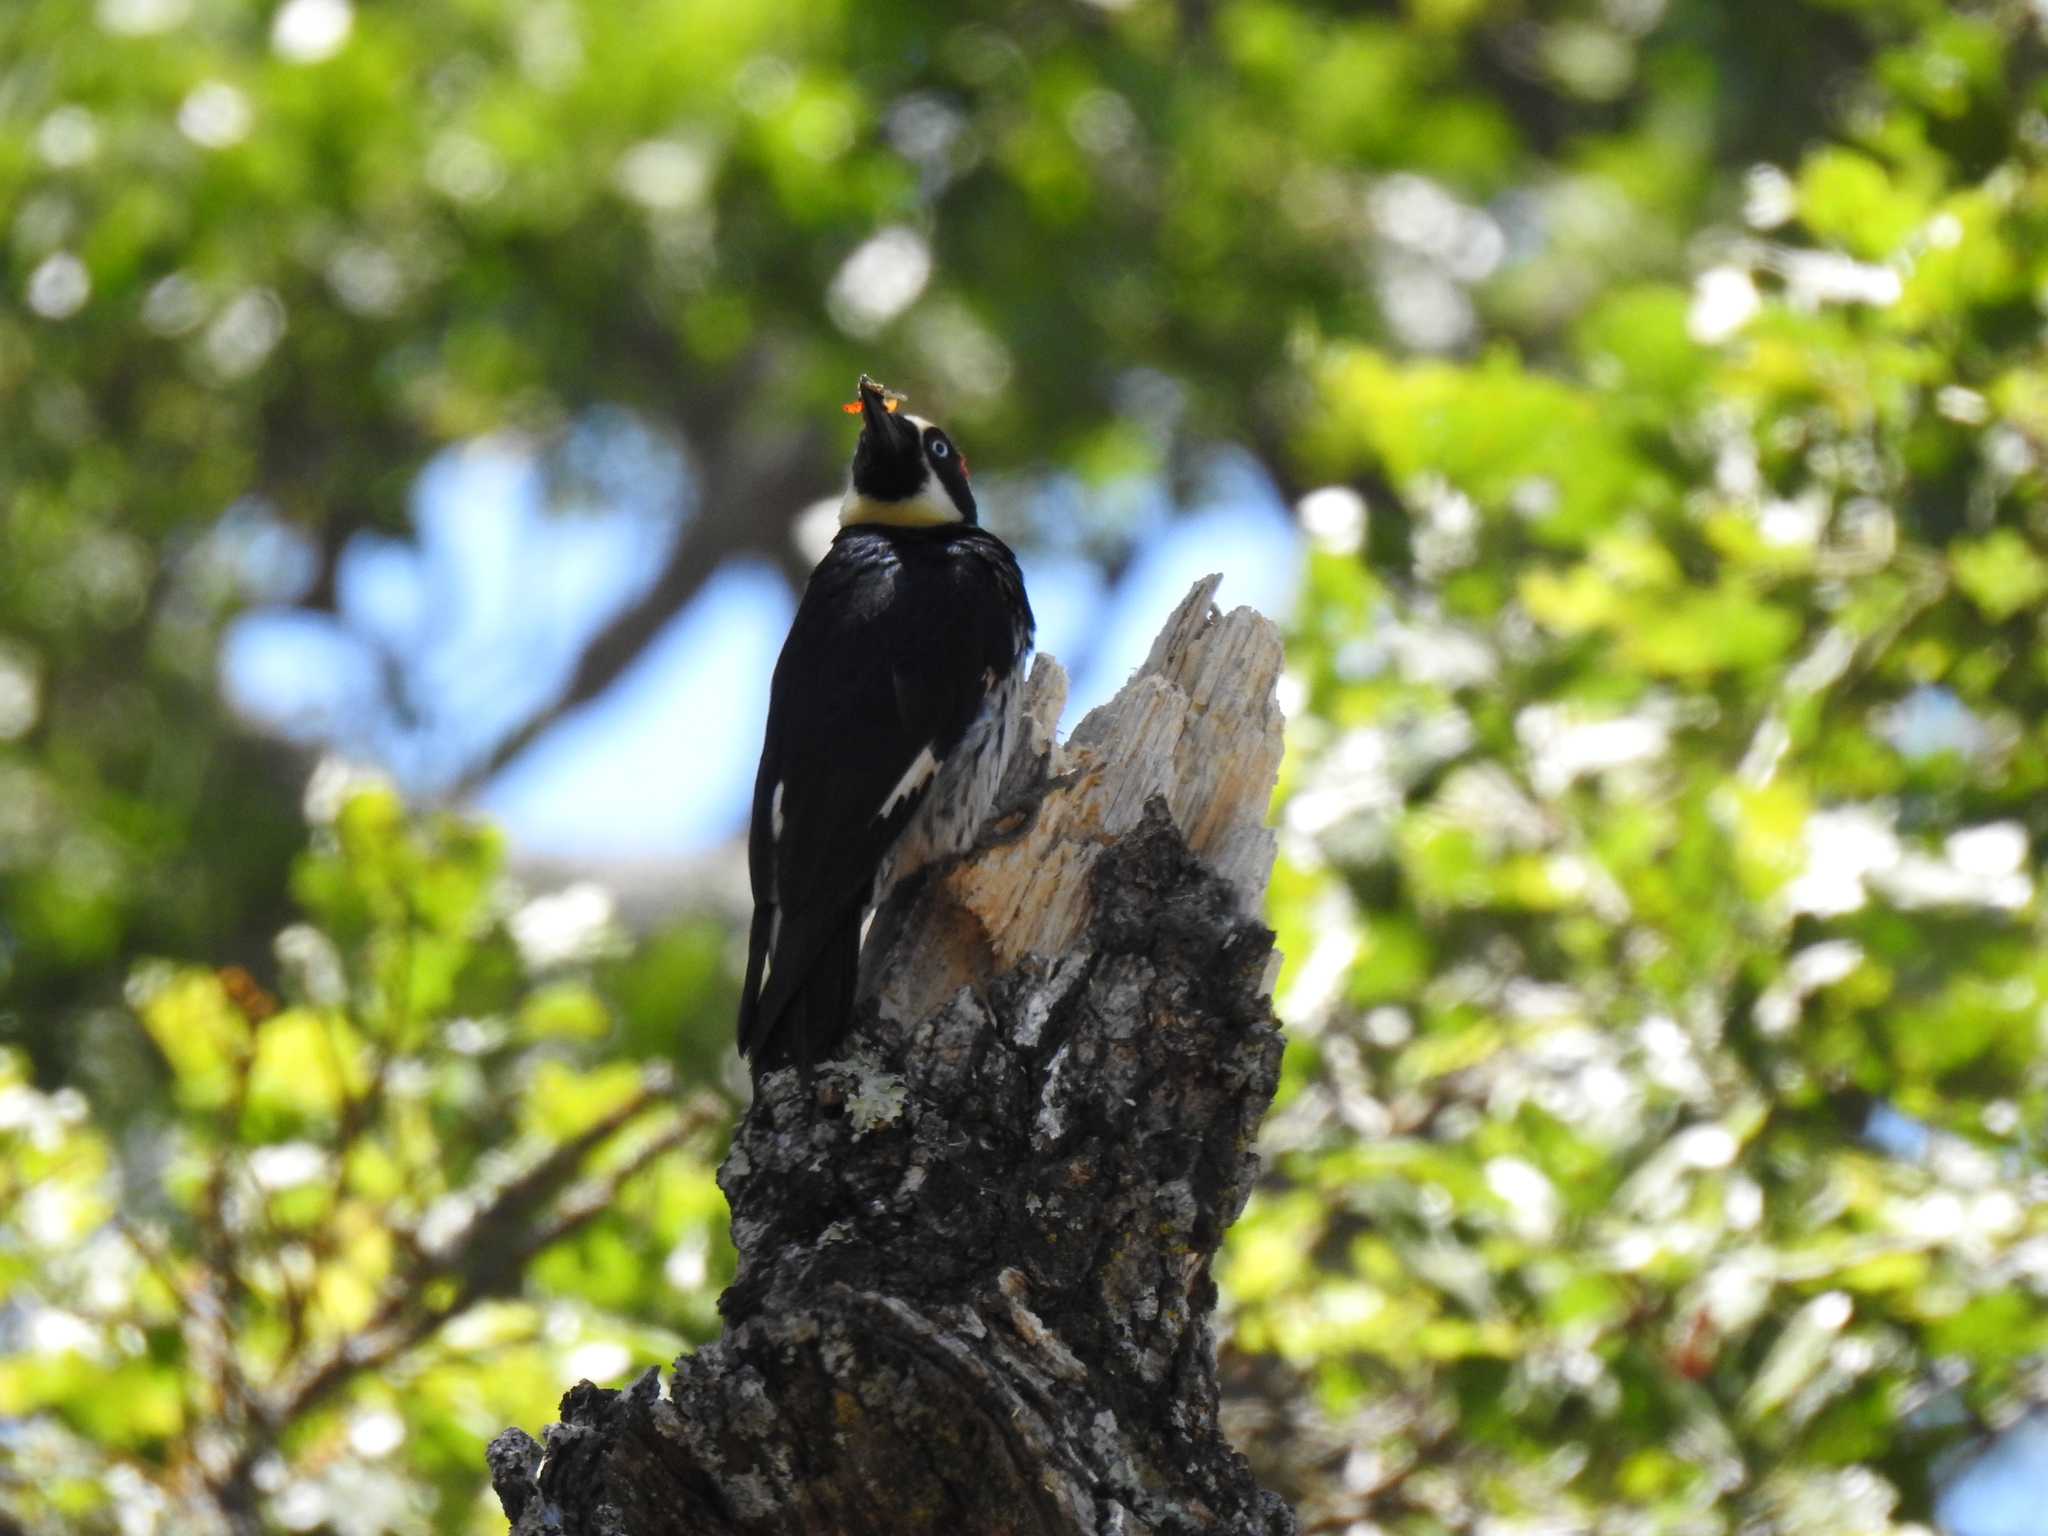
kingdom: Animalia
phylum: Chordata
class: Aves
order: Piciformes
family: Picidae
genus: Melanerpes
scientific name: Melanerpes formicivorus
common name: Acorn woodpecker
